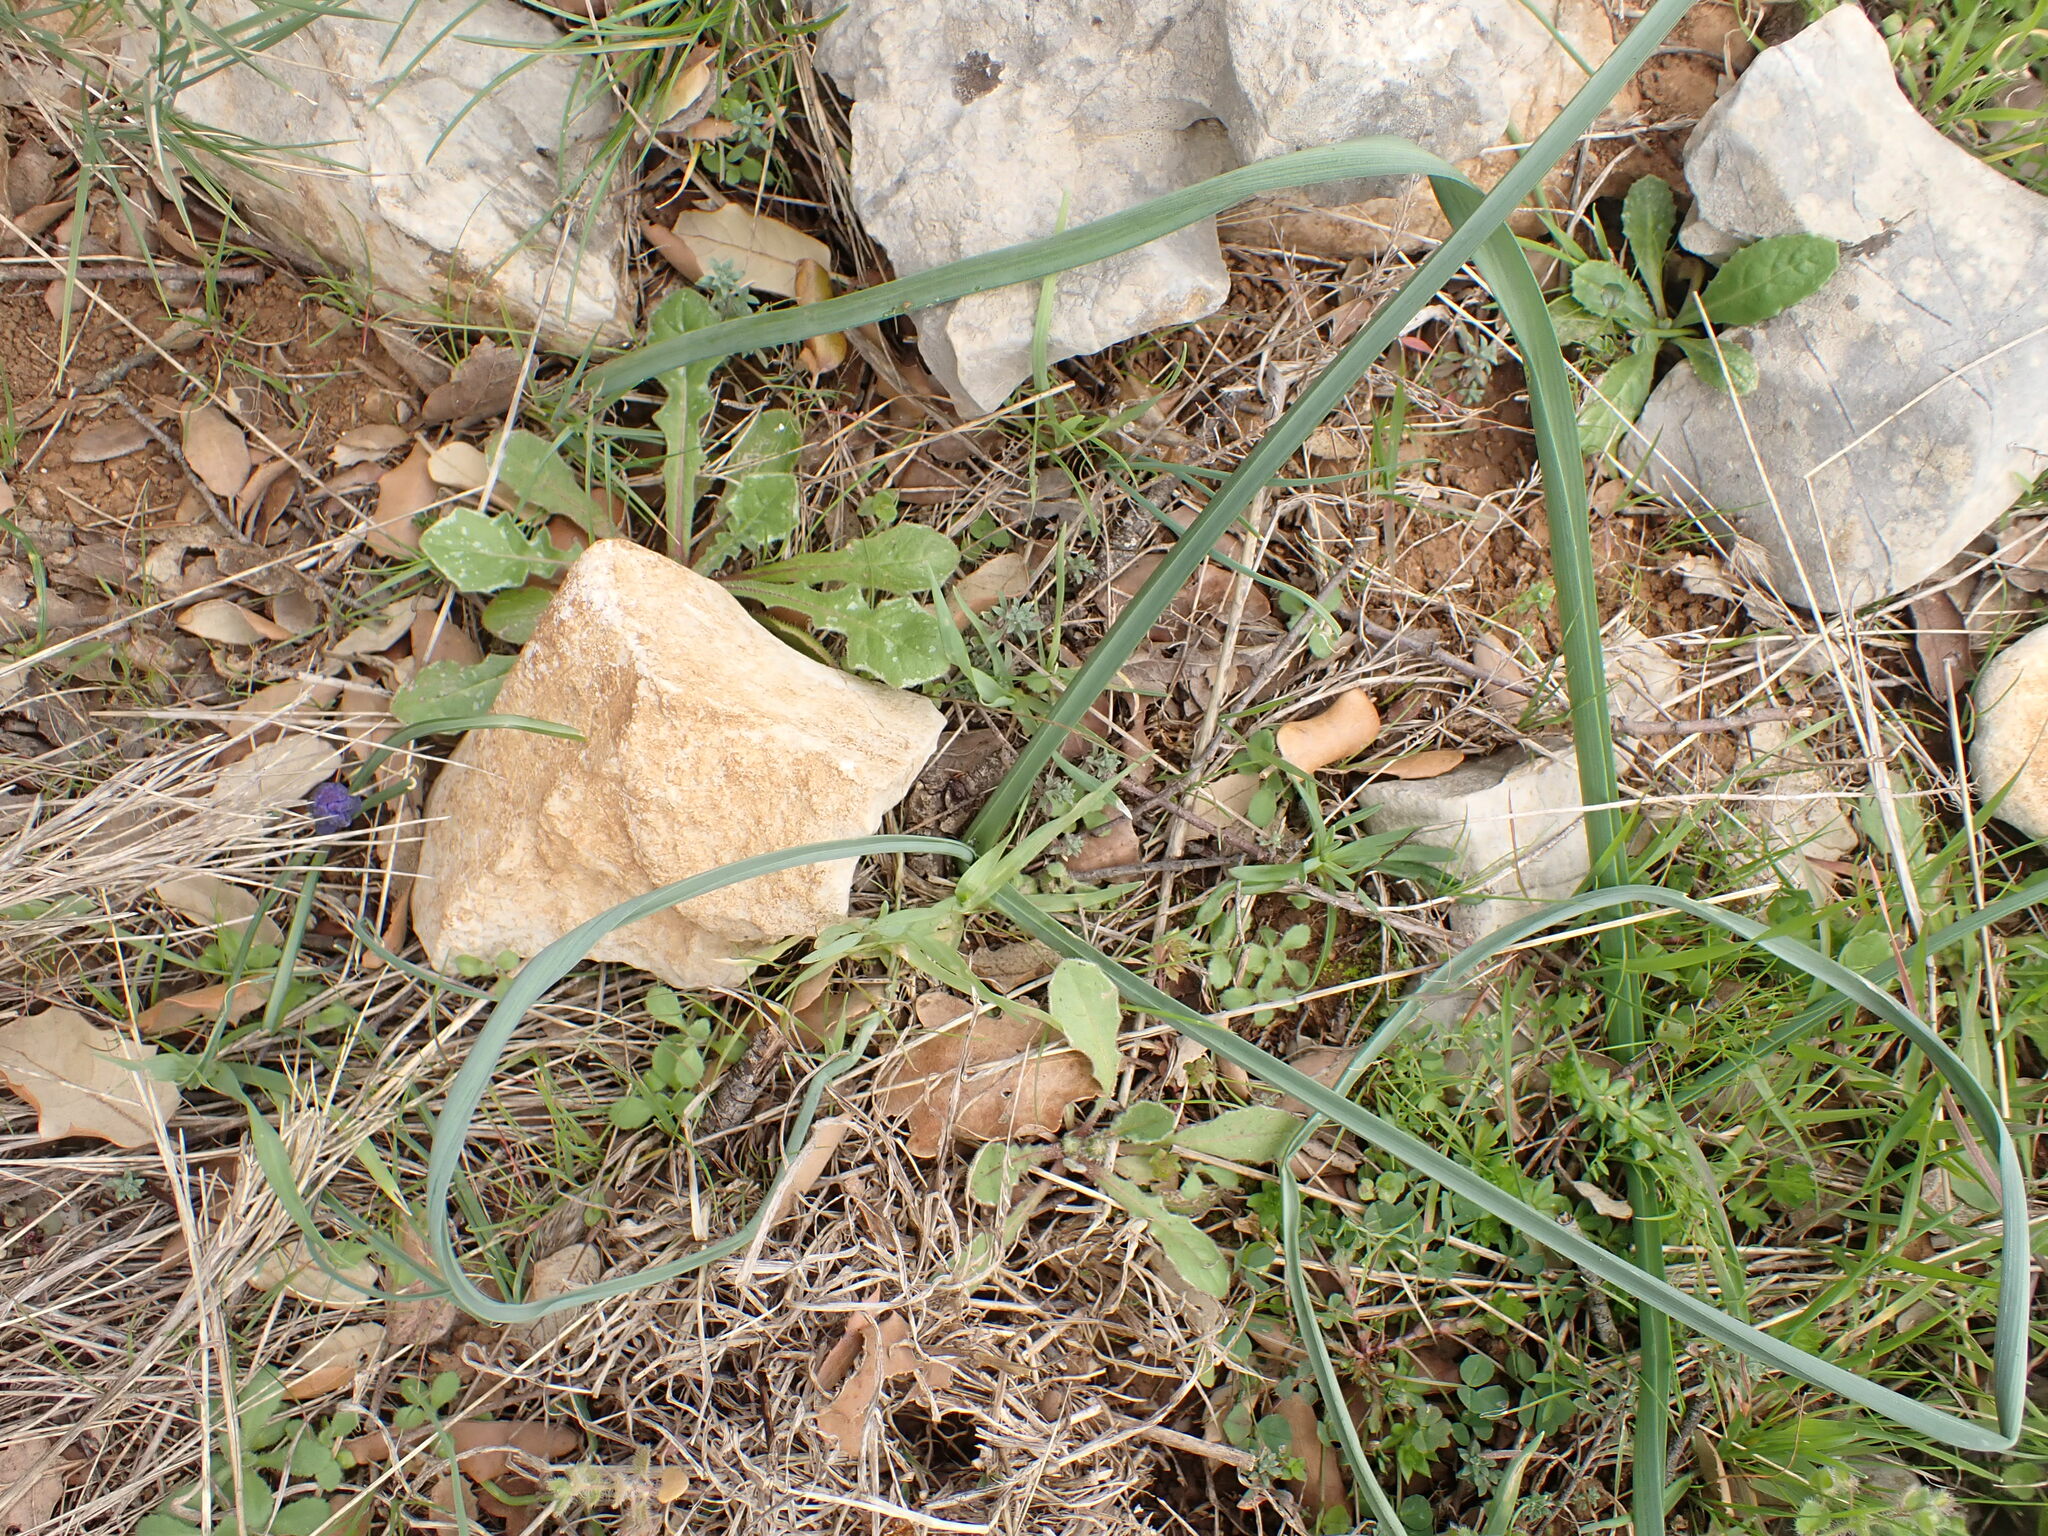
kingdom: Plantae
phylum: Tracheophyta
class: Liliopsida
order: Asparagales
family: Asparagaceae
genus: Muscari
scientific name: Muscari comosum
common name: Tassel hyacinth
